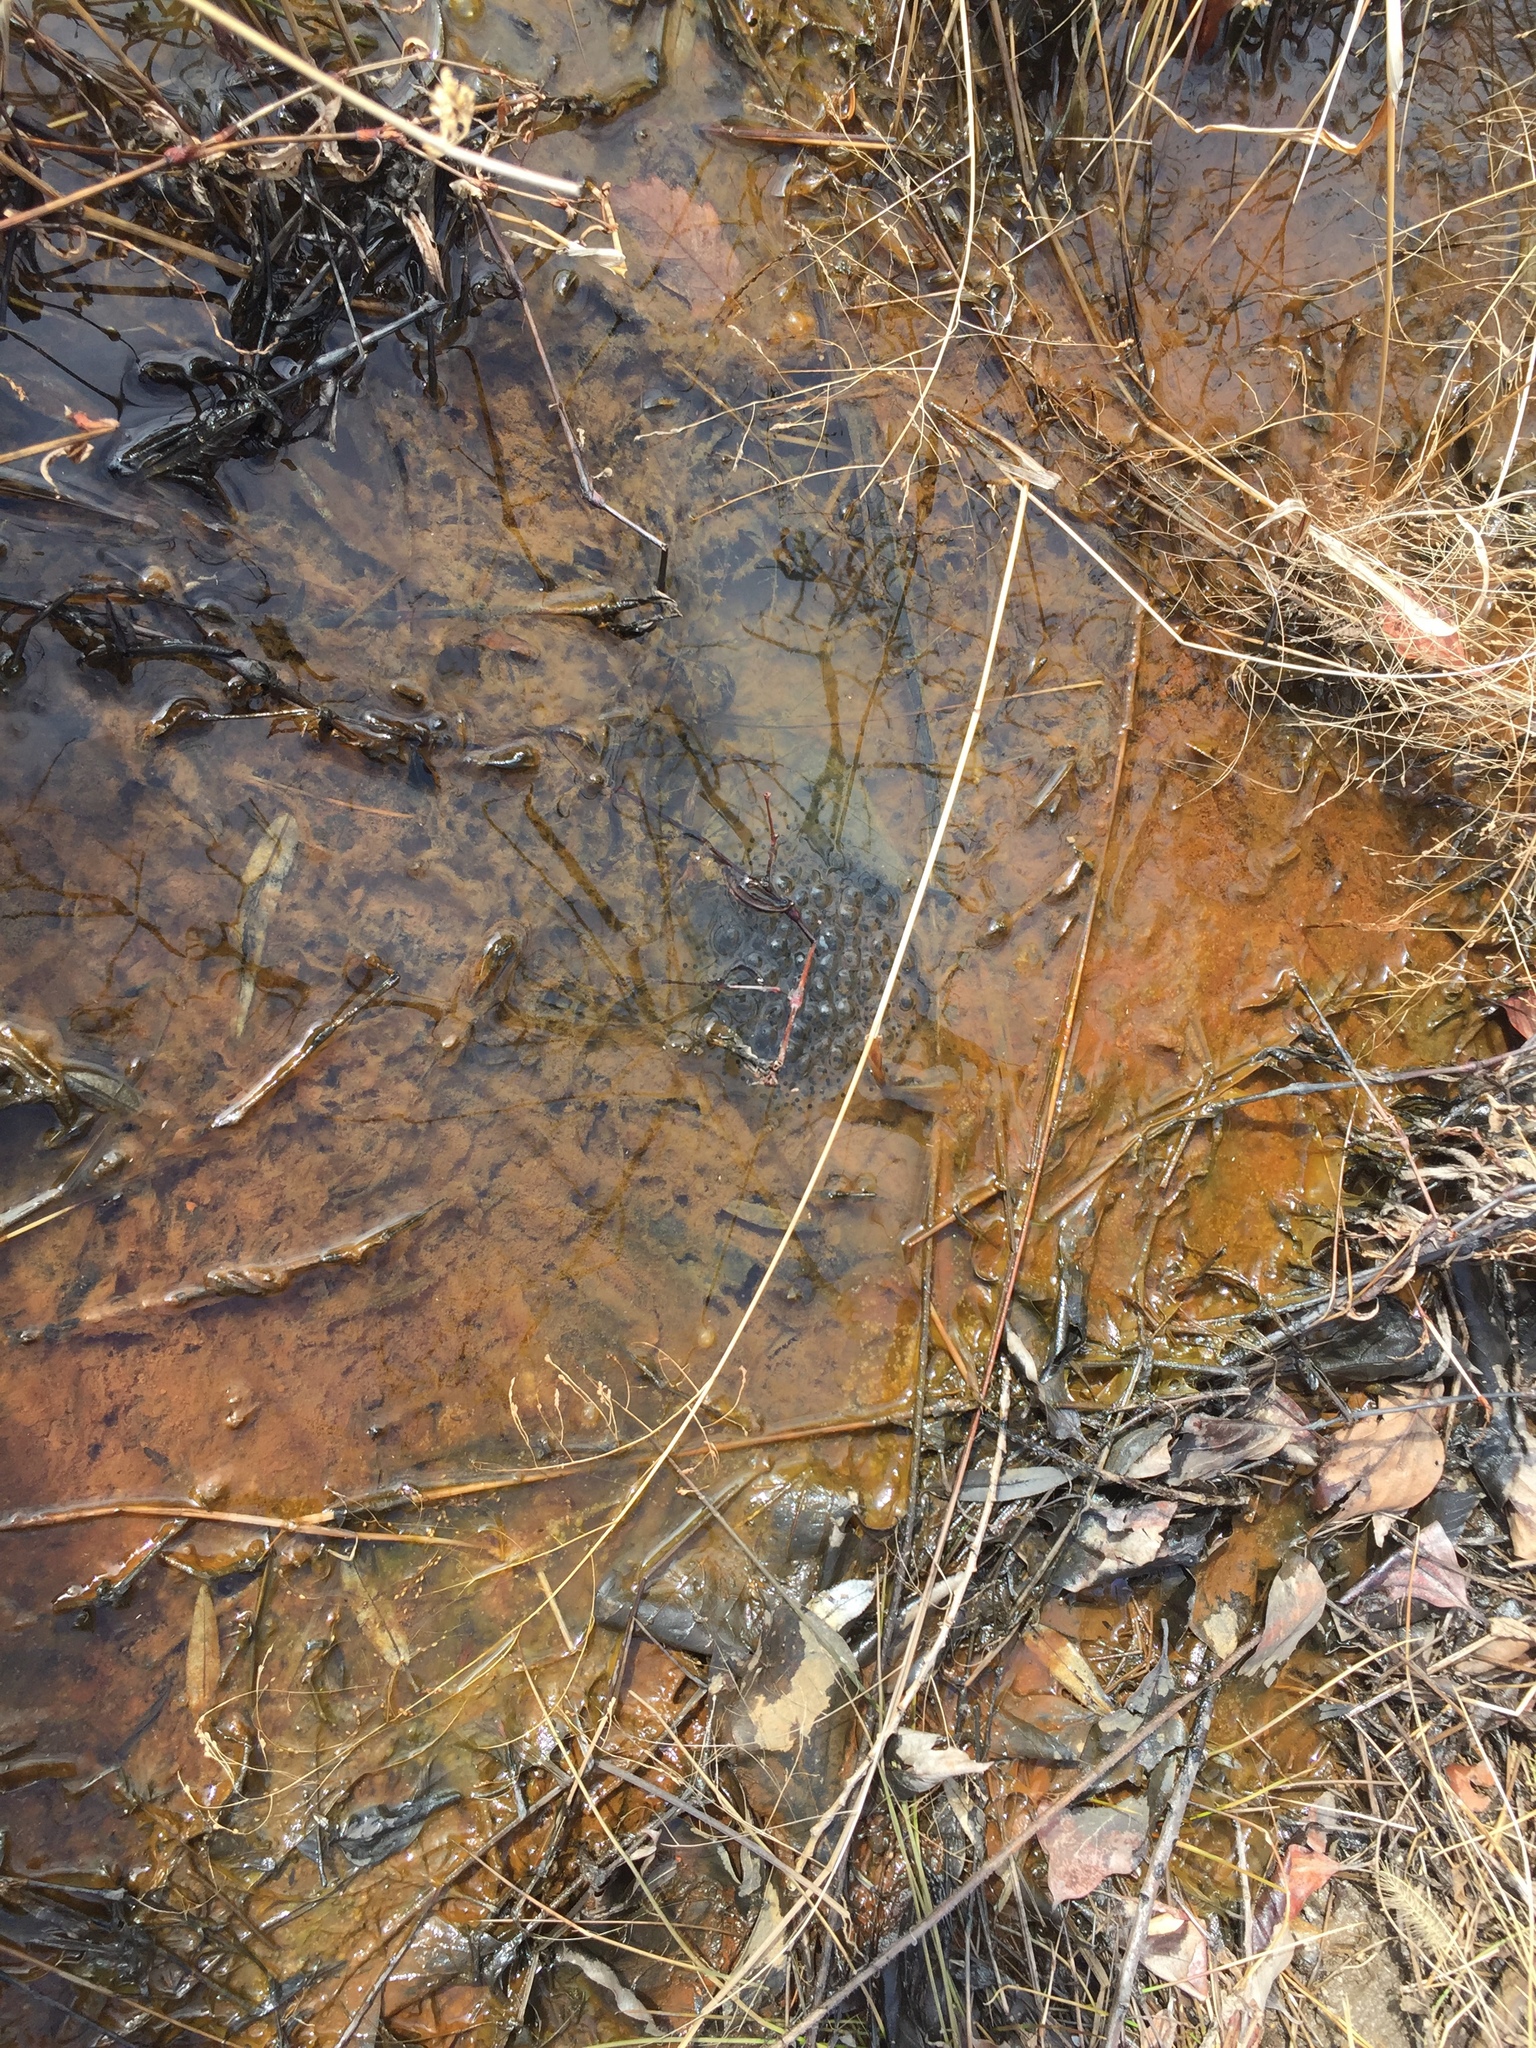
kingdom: Animalia
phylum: Chordata
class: Amphibia
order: Anura
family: Ranidae
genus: Rana
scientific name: Rana uenoi
